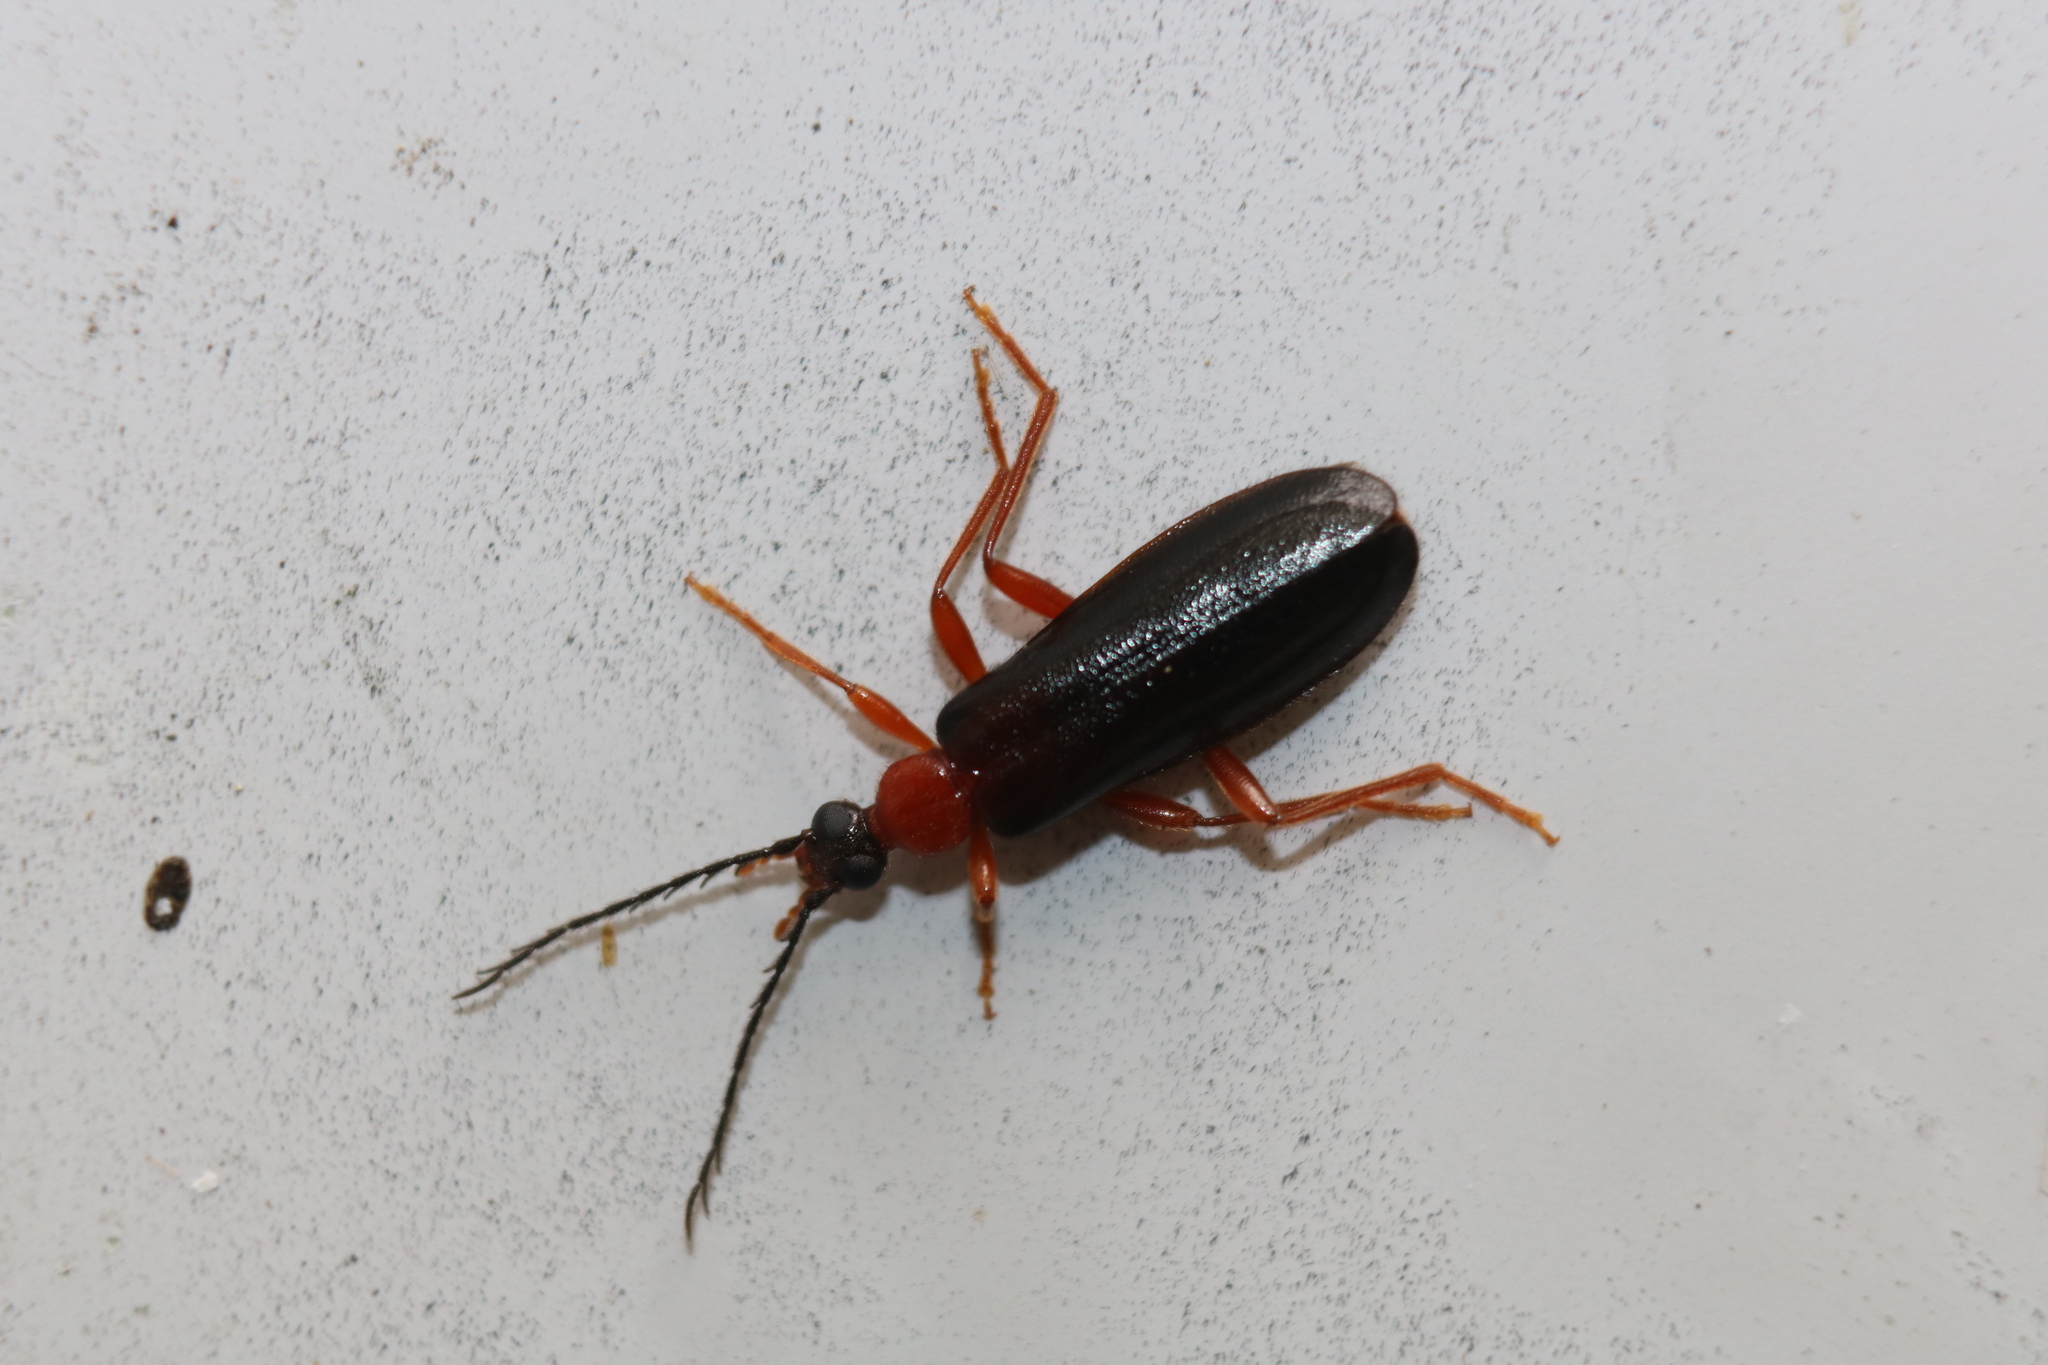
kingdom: Animalia
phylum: Arthropoda
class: Insecta
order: Coleoptera
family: Pyrochroidae
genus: Dendroides
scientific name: Dendroides canadensis
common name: Canada fire-colored beetle
